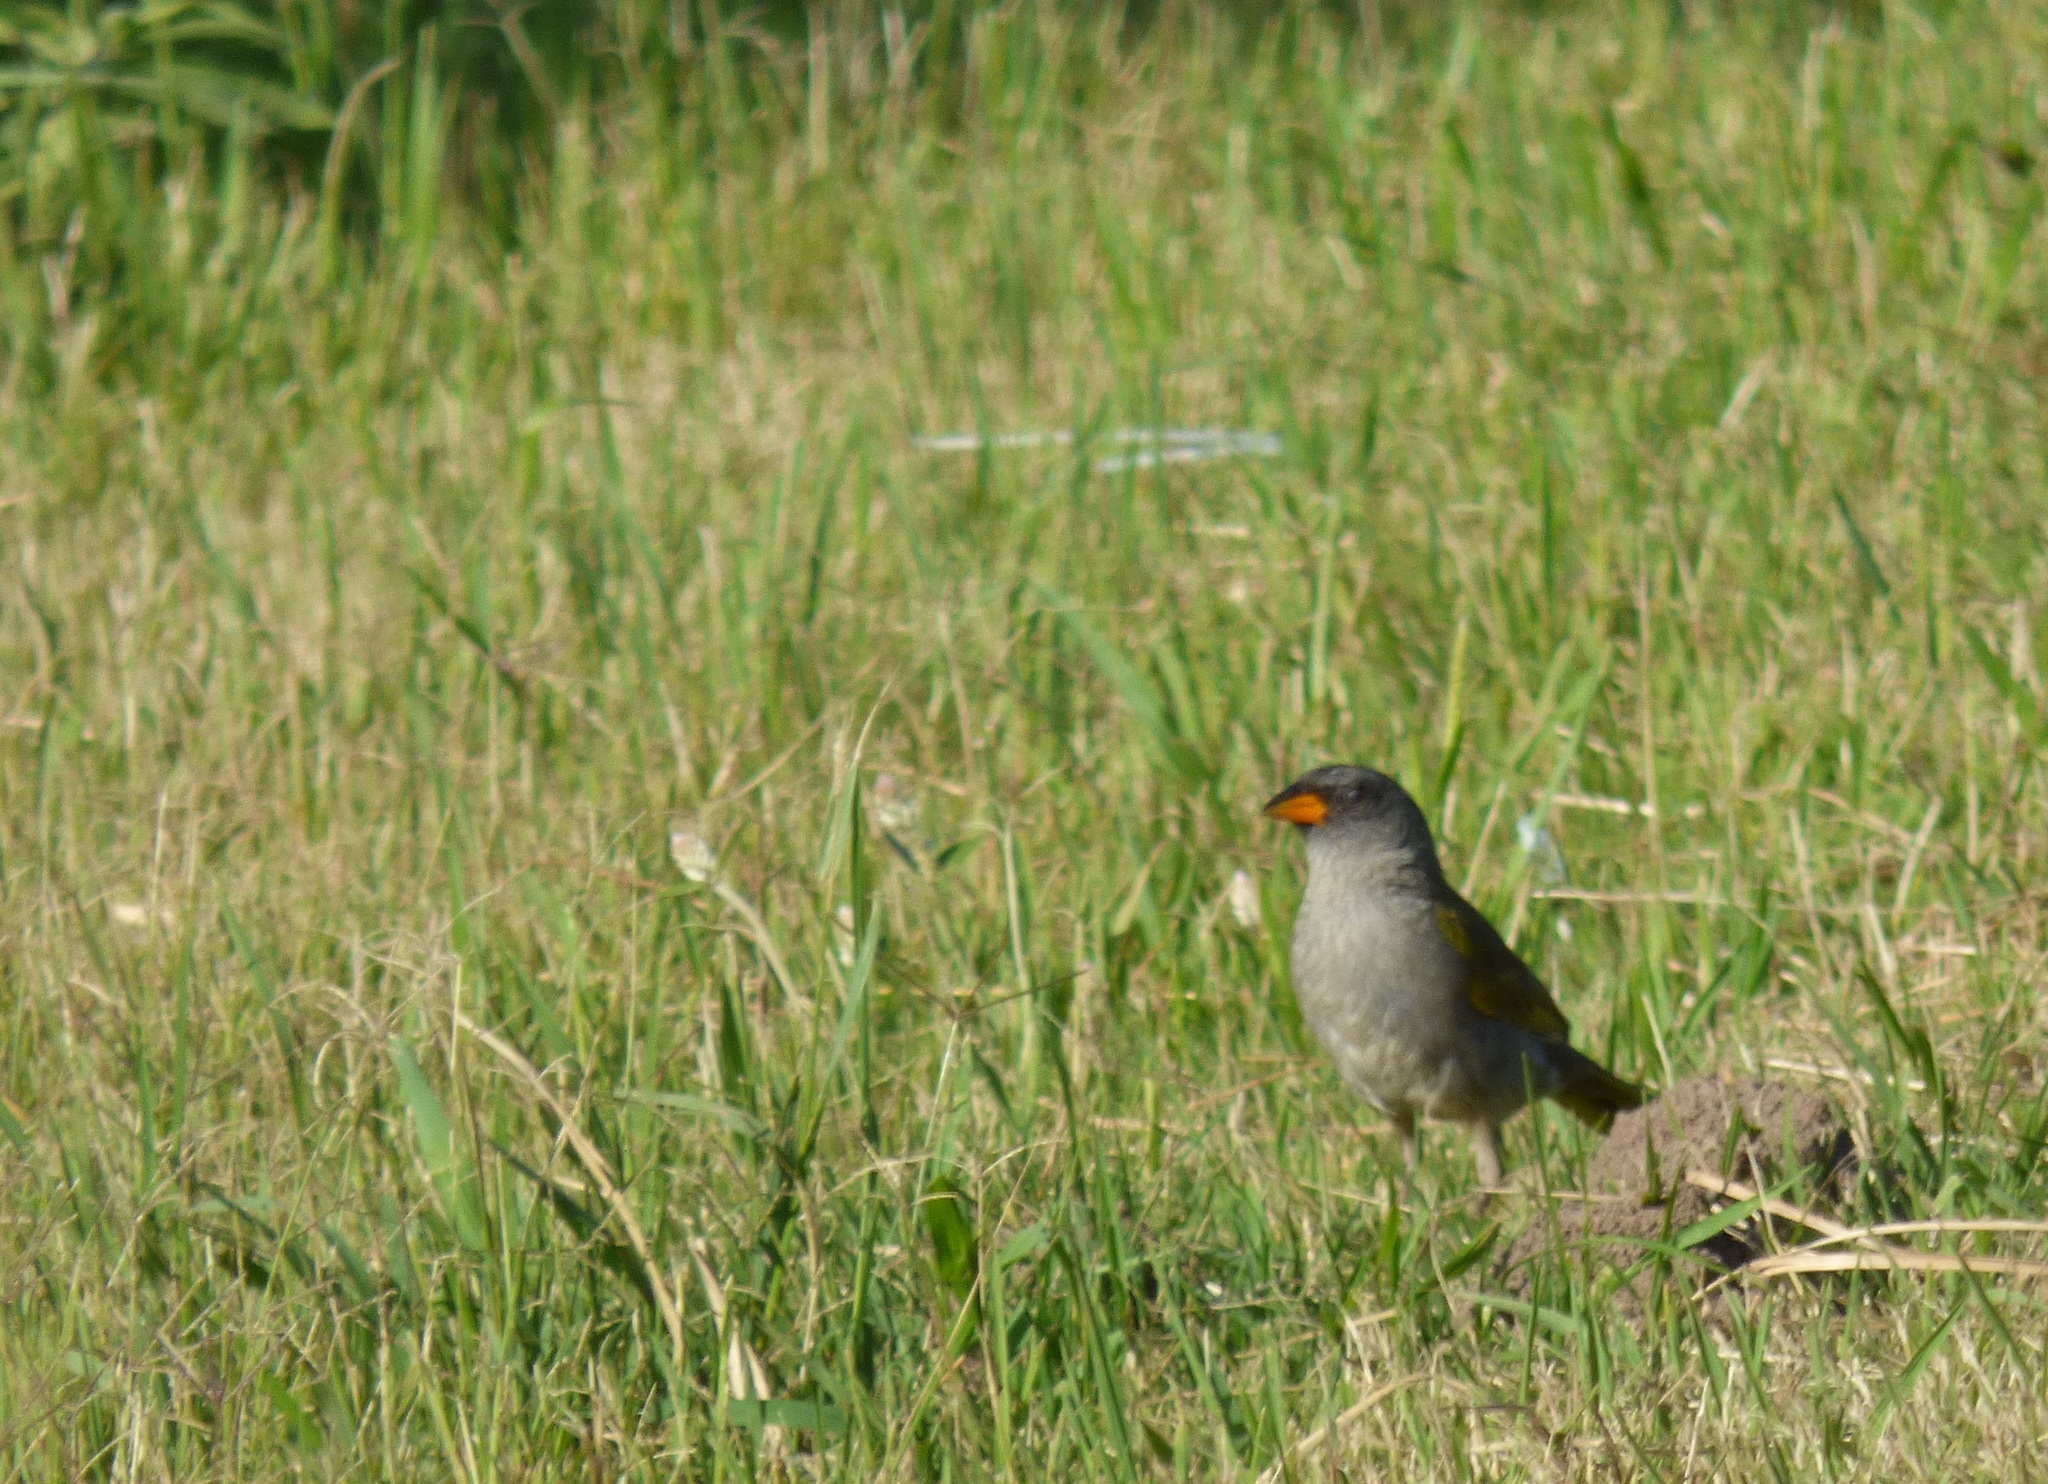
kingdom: Animalia
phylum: Chordata
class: Aves
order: Passeriformes
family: Thraupidae
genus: Embernagra
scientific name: Embernagra platensis
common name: Pampa finch
